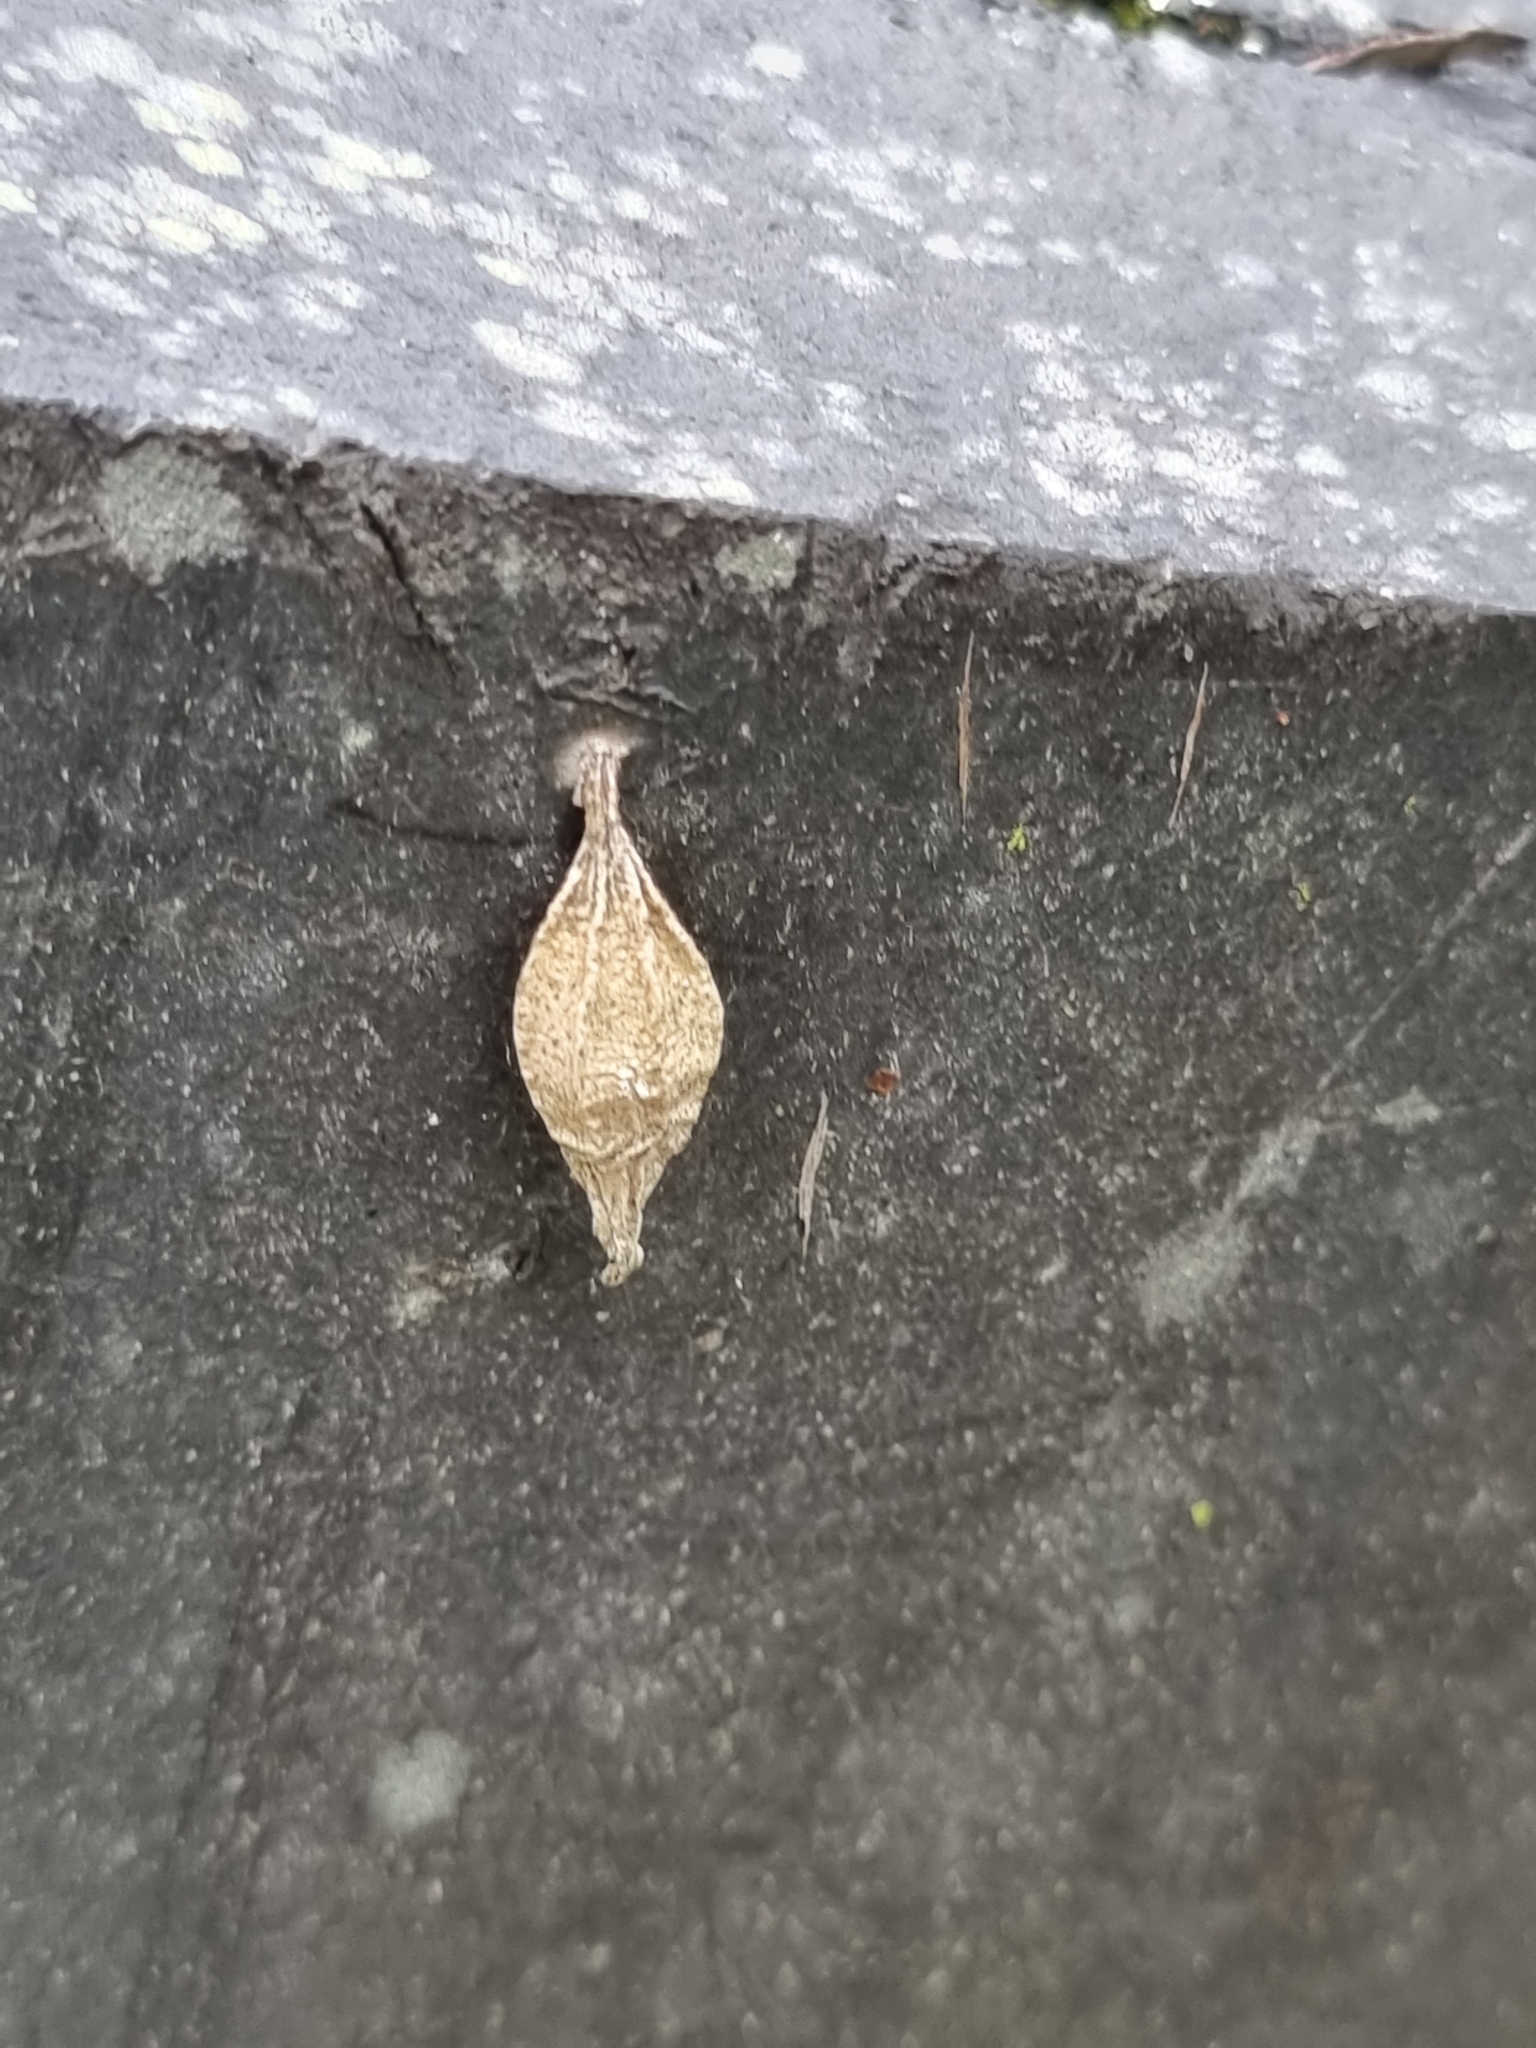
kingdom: Animalia
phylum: Arthropoda
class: Insecta
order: Lepidoptera
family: Psychidae
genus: Hyalarcta
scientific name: Hyalarcta nigrescens
